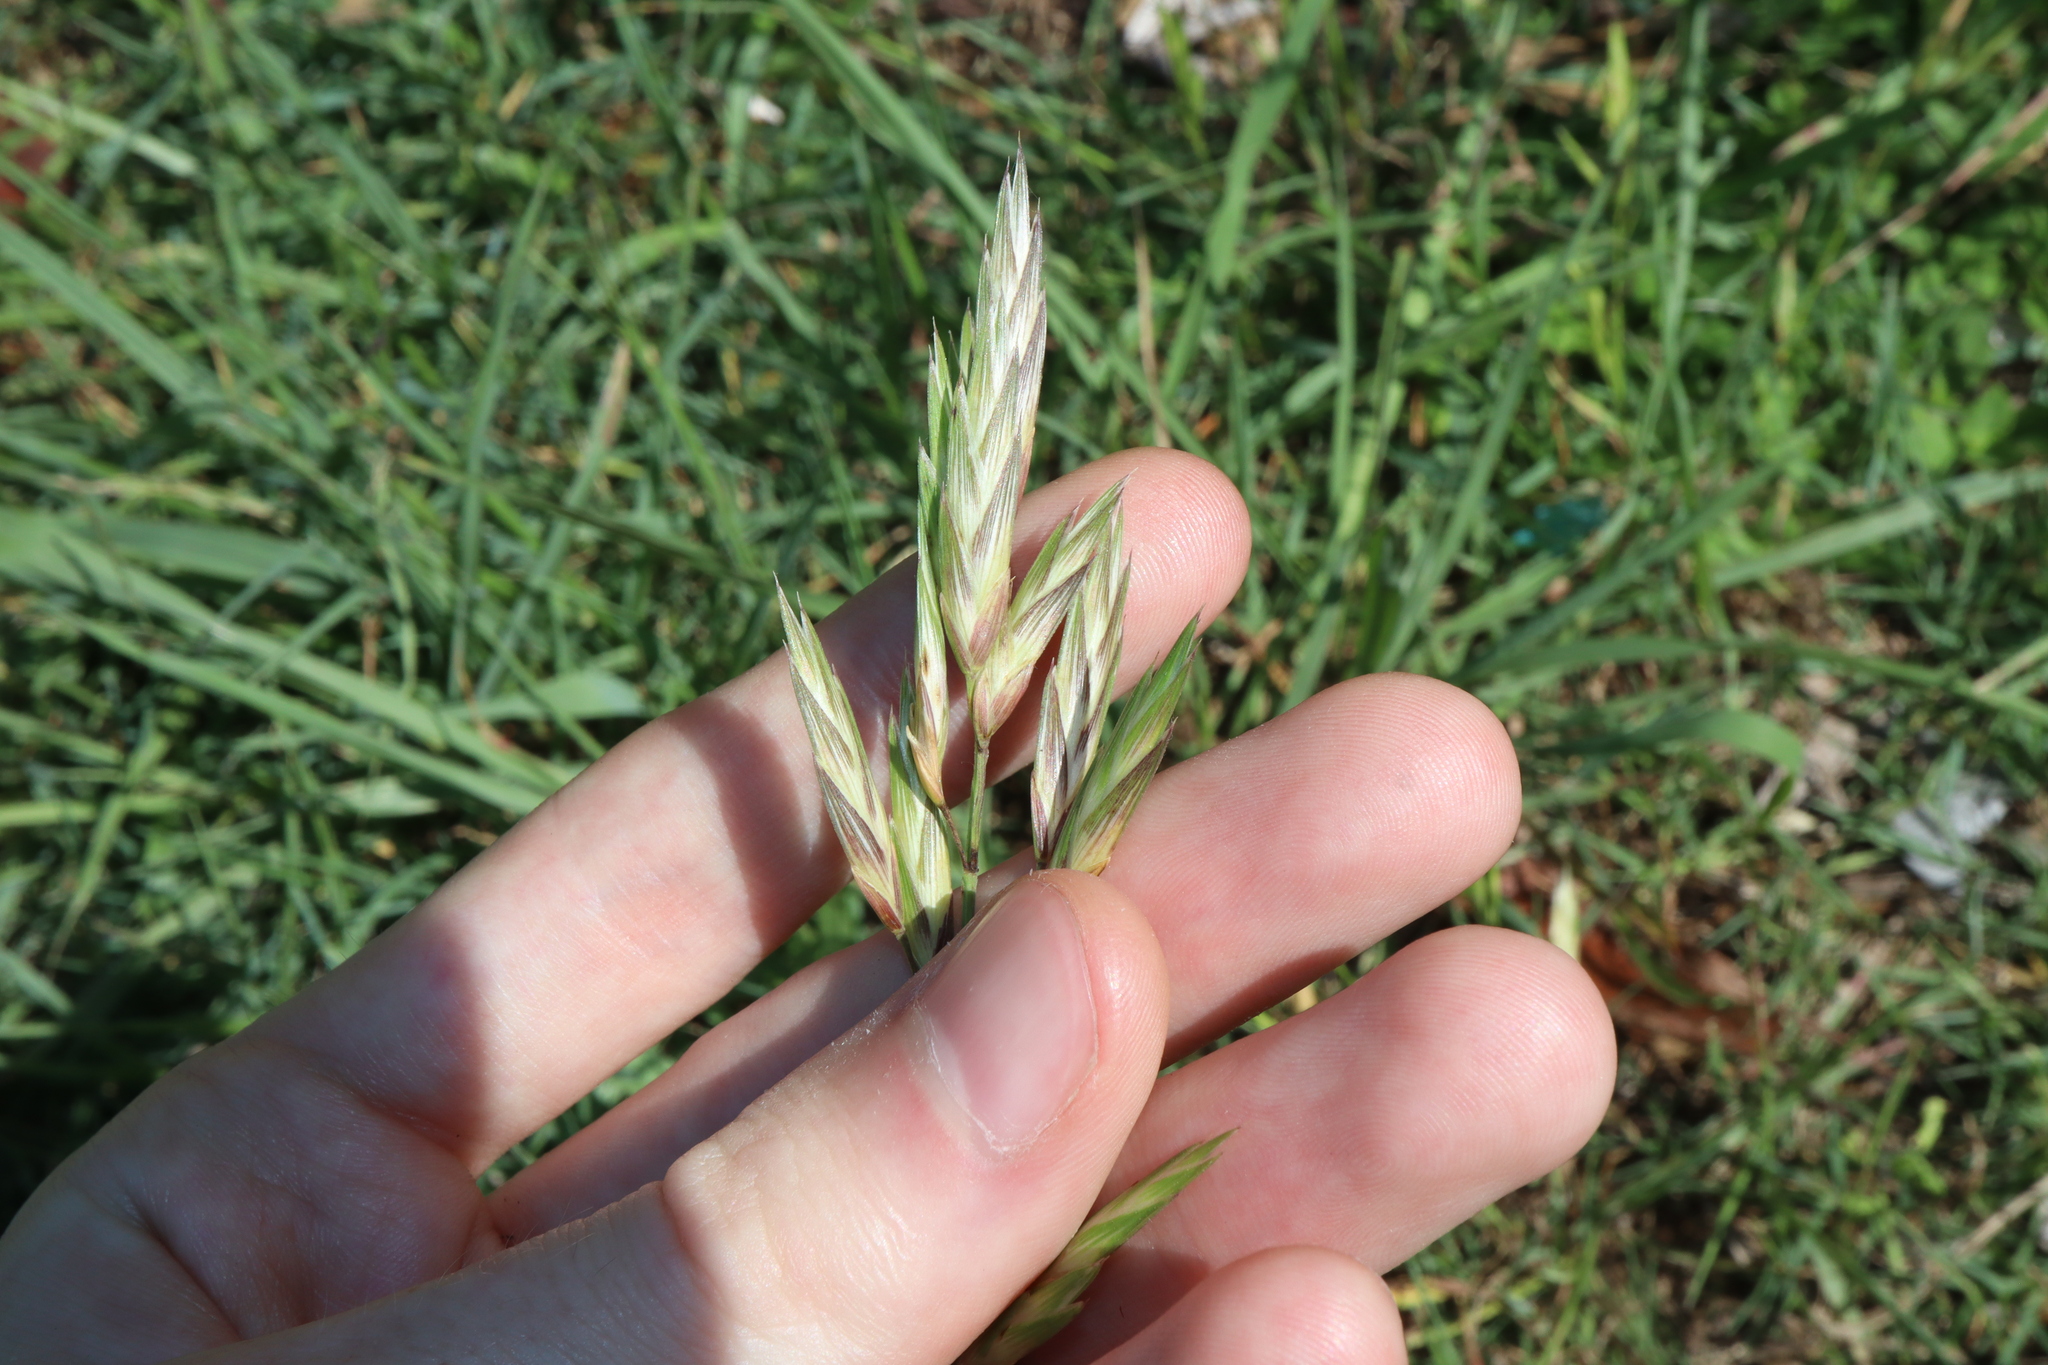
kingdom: Plantae
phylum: Tracheophyta
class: Liliopsida
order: Poales
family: Poaceae
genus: Bromus
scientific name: Bromus catharticus
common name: Rescuegrass
